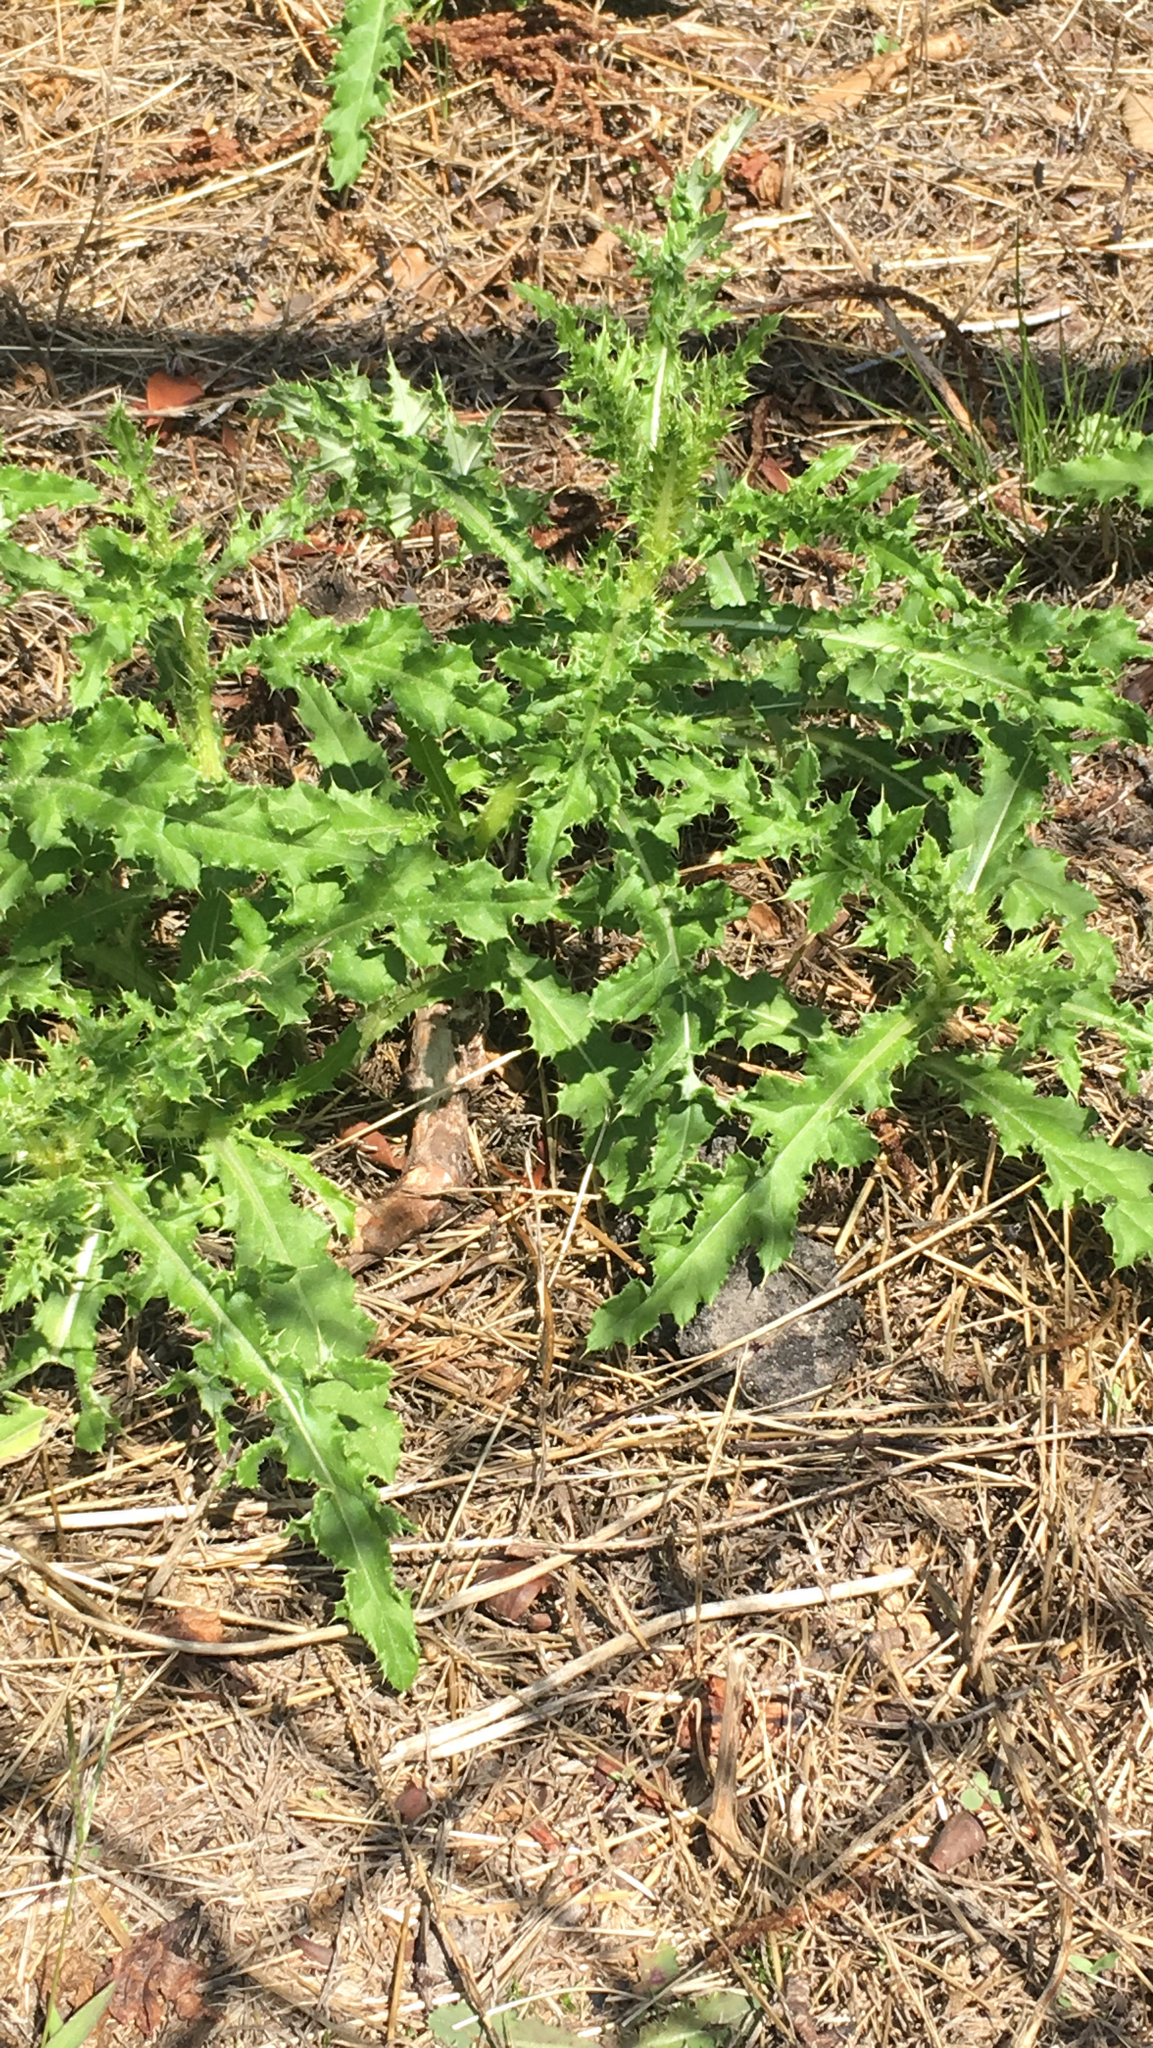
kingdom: Plantae
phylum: Tracheophyta
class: Magnoliopsida
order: Asterales
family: Asteraceae
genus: Cirsium
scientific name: Cirsium arvense
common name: Creeping thistle
